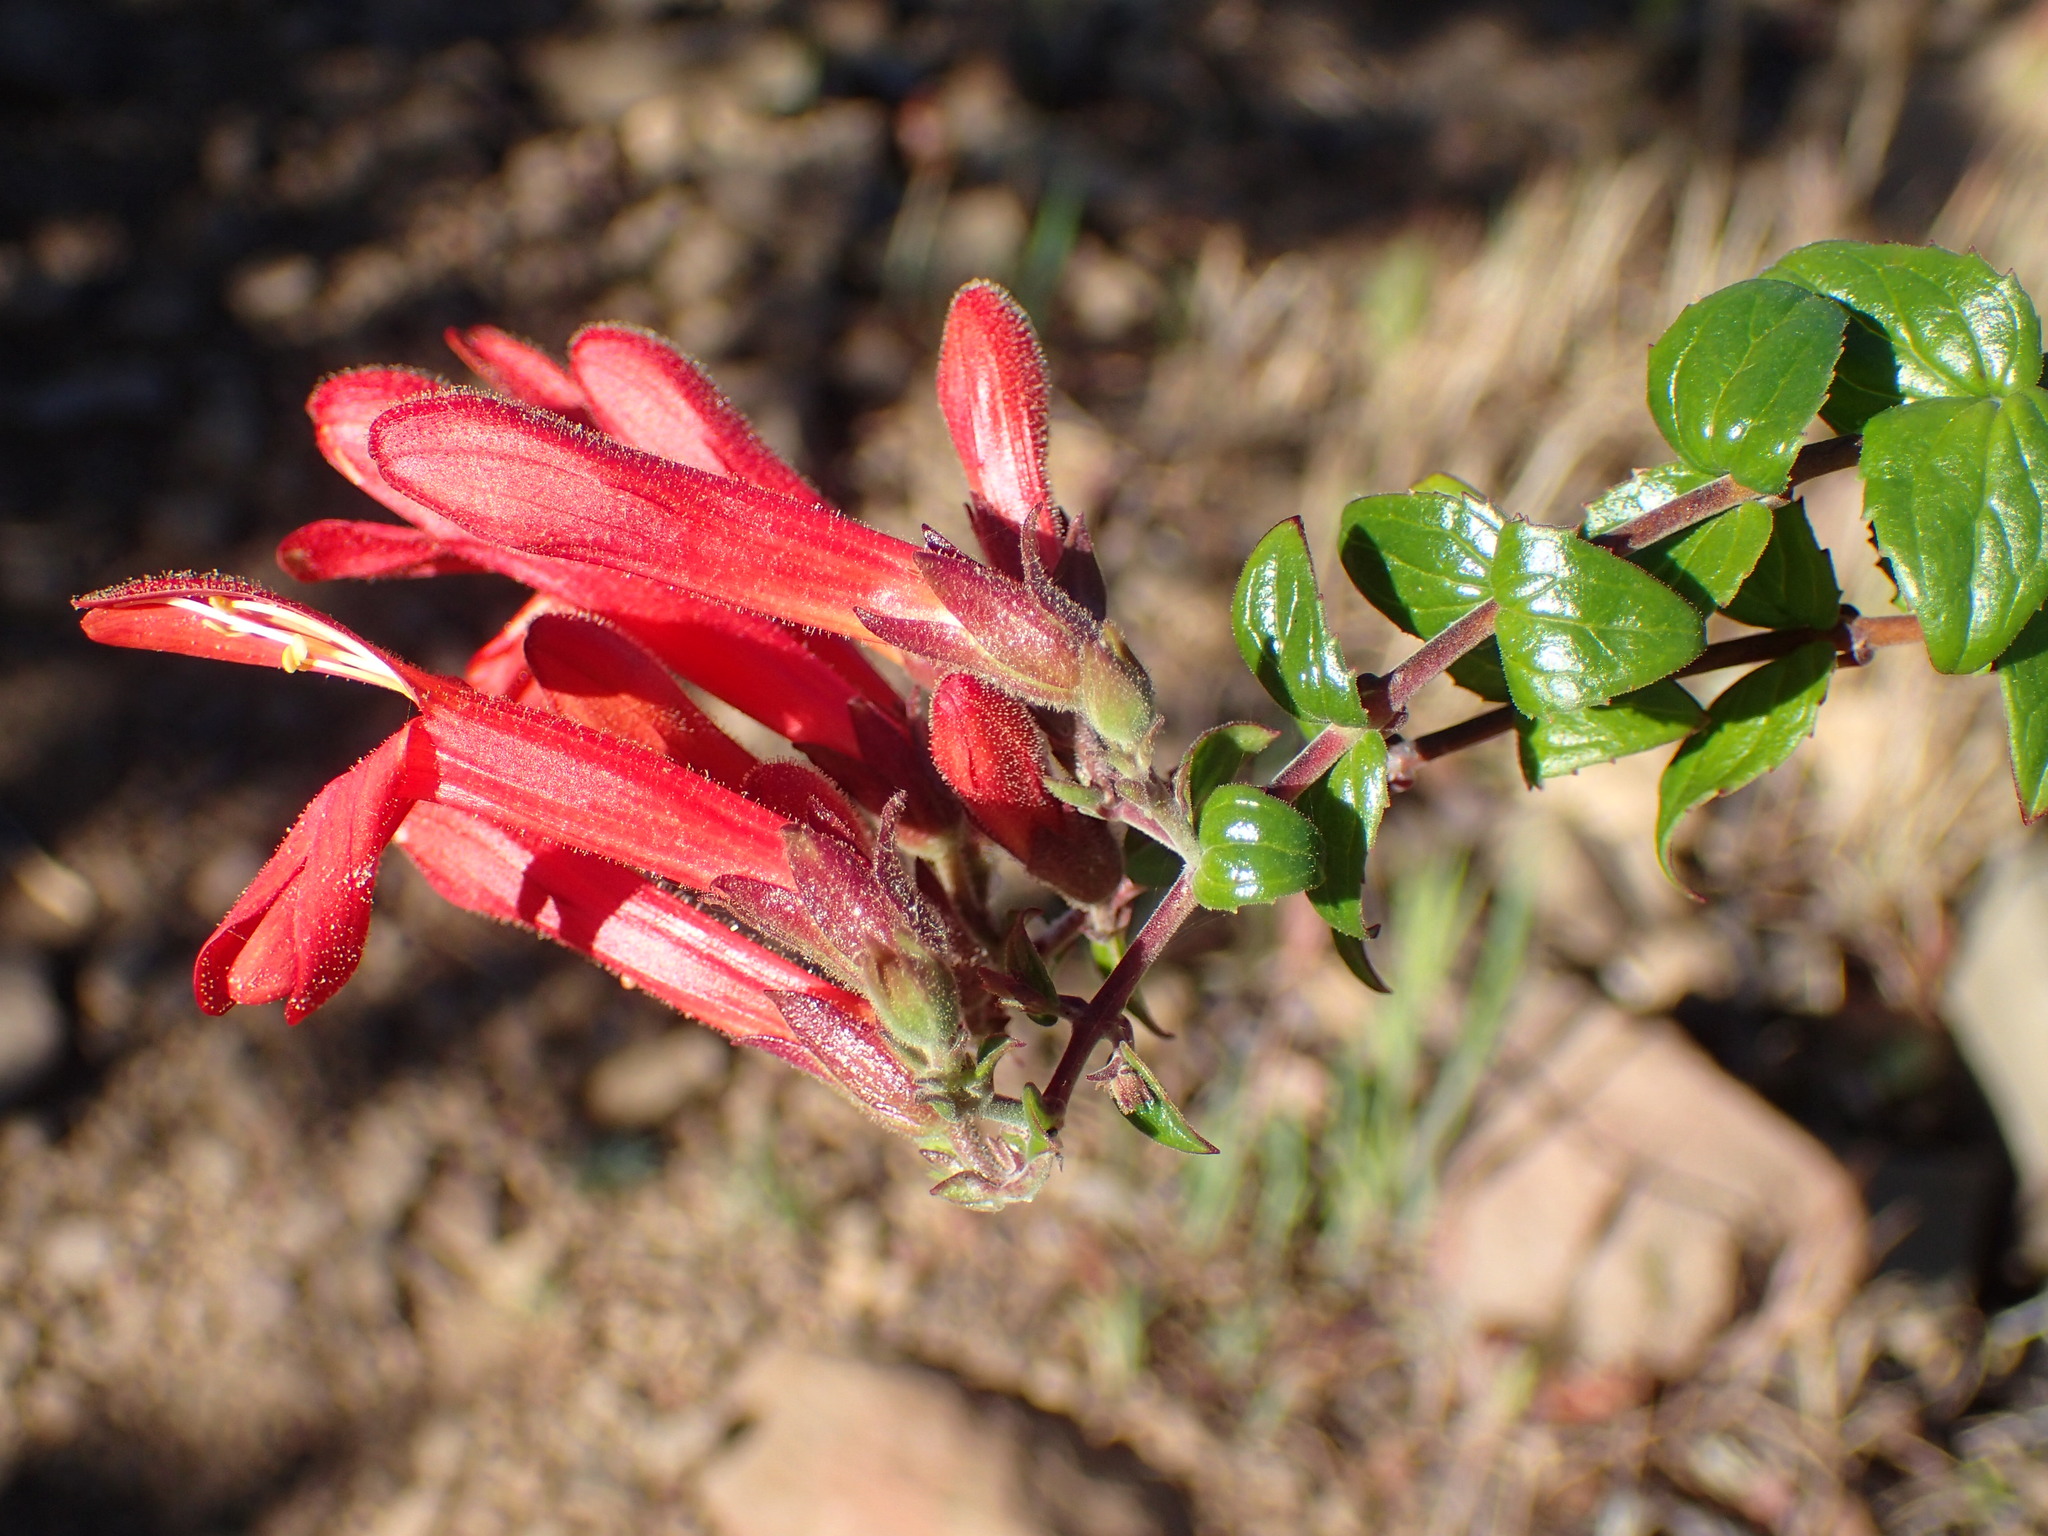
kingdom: Plantae
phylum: Tracheophyta
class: Magnoliopsida
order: Lamiales
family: Plantaginaceae
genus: Keckiella
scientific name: Keckiella cordifolia
